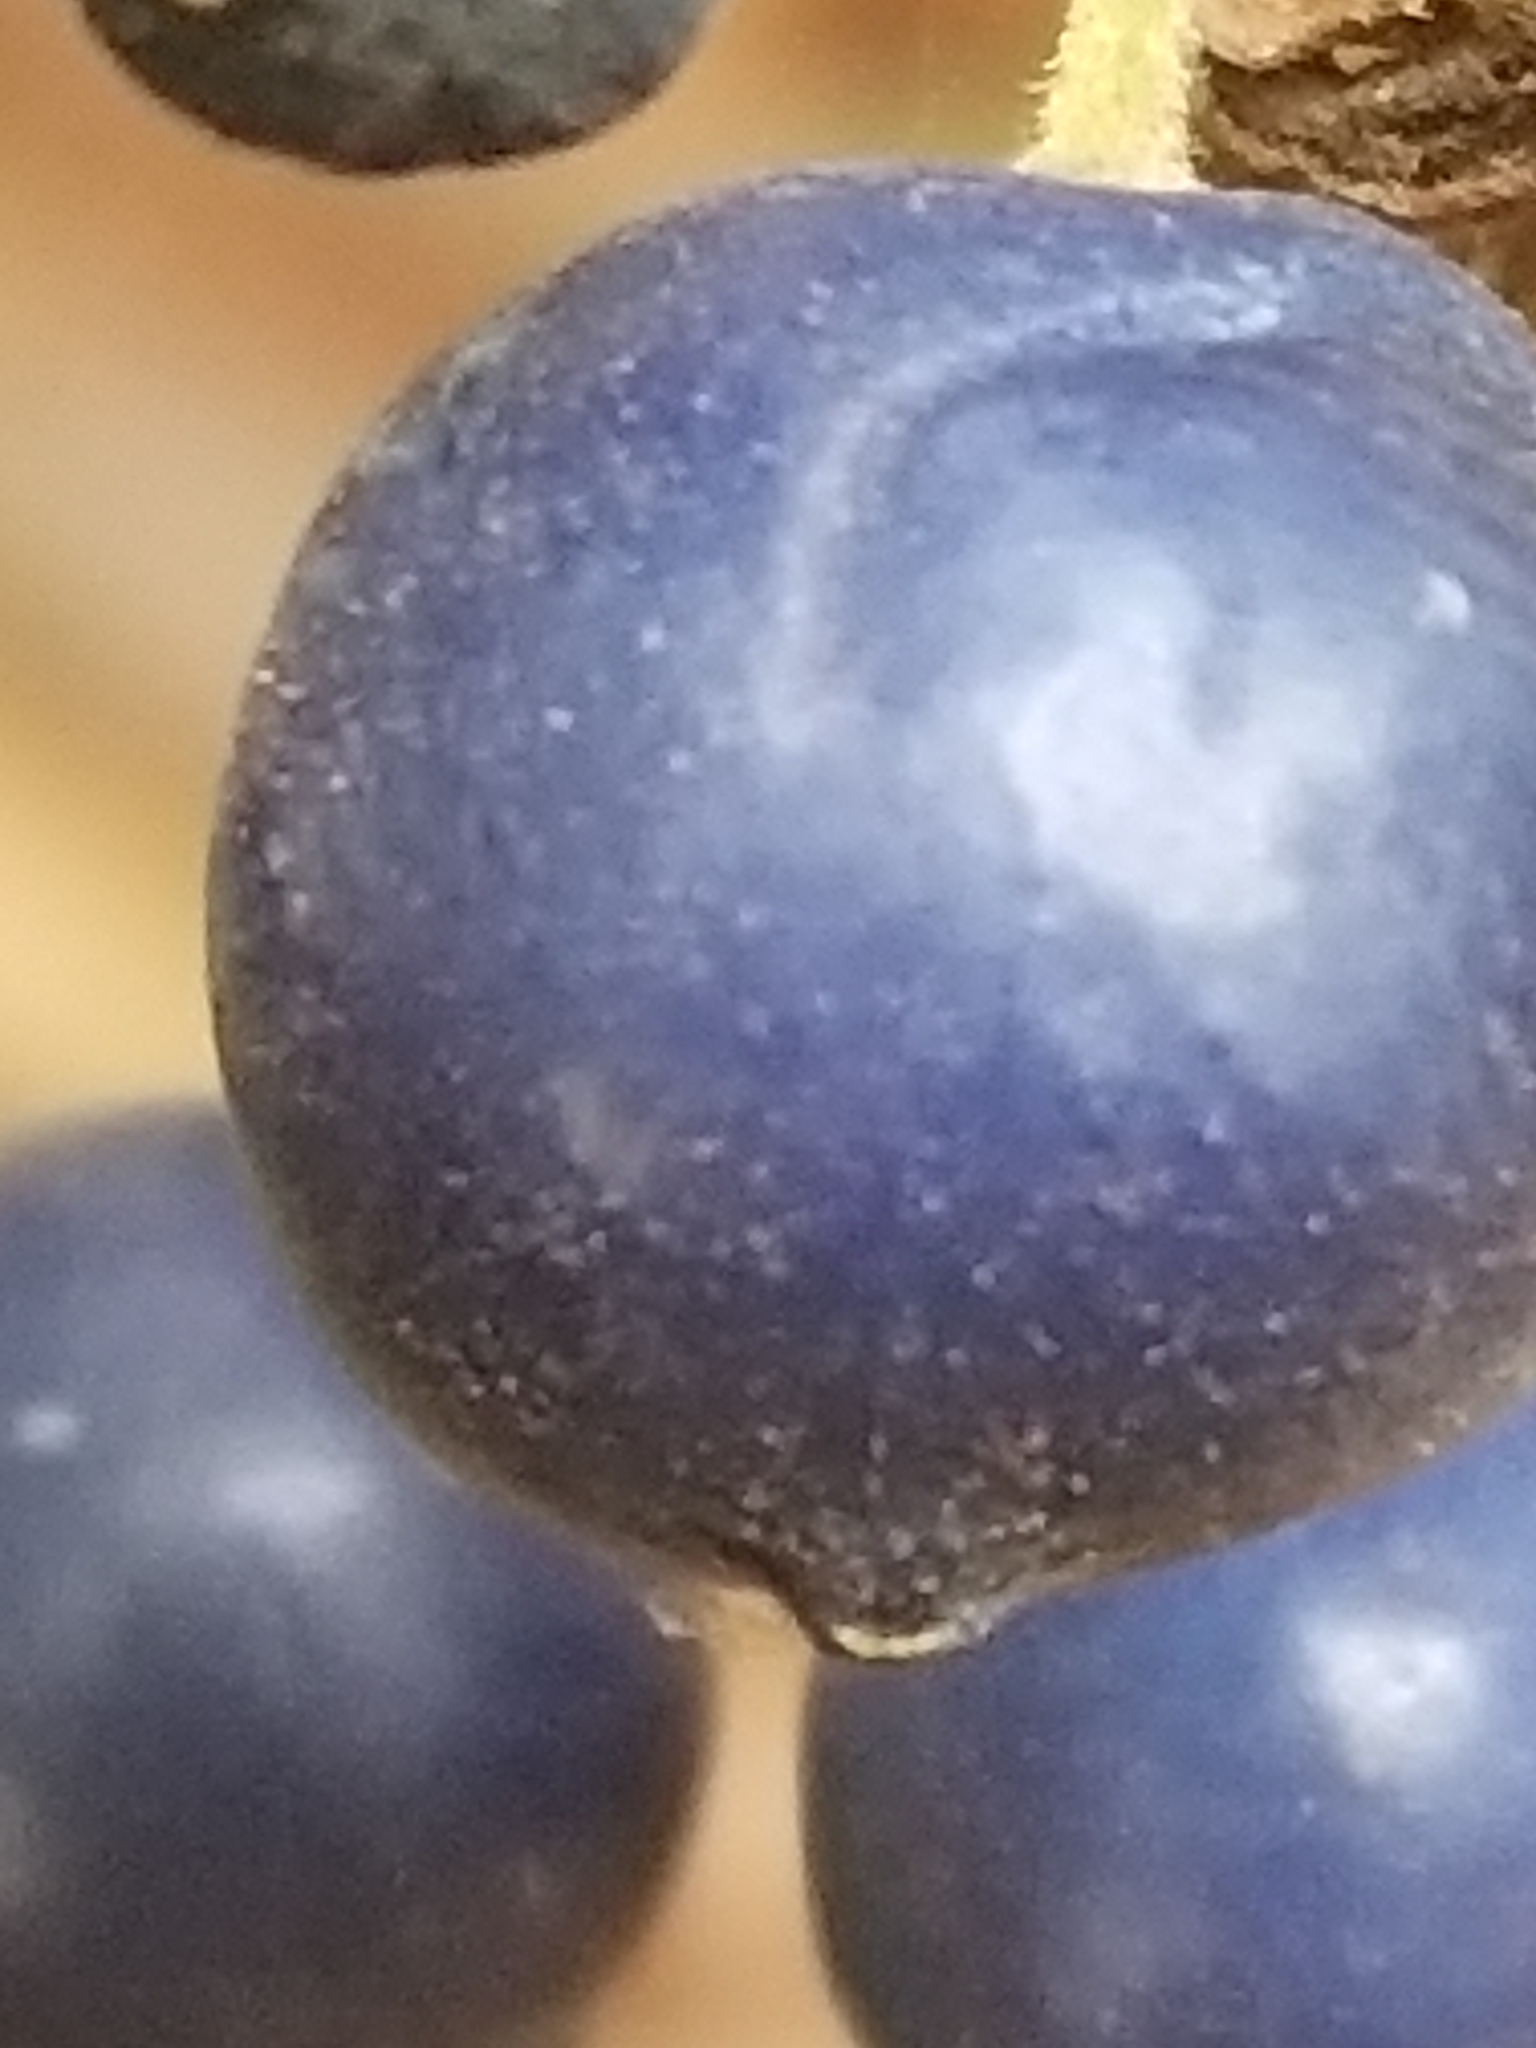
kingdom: Plantae
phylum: Tracheophyta
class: Liliopsida
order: Liliales
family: Liliaceae
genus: Clintonia
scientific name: Clintonia andrewsiana
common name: Red clintonia
